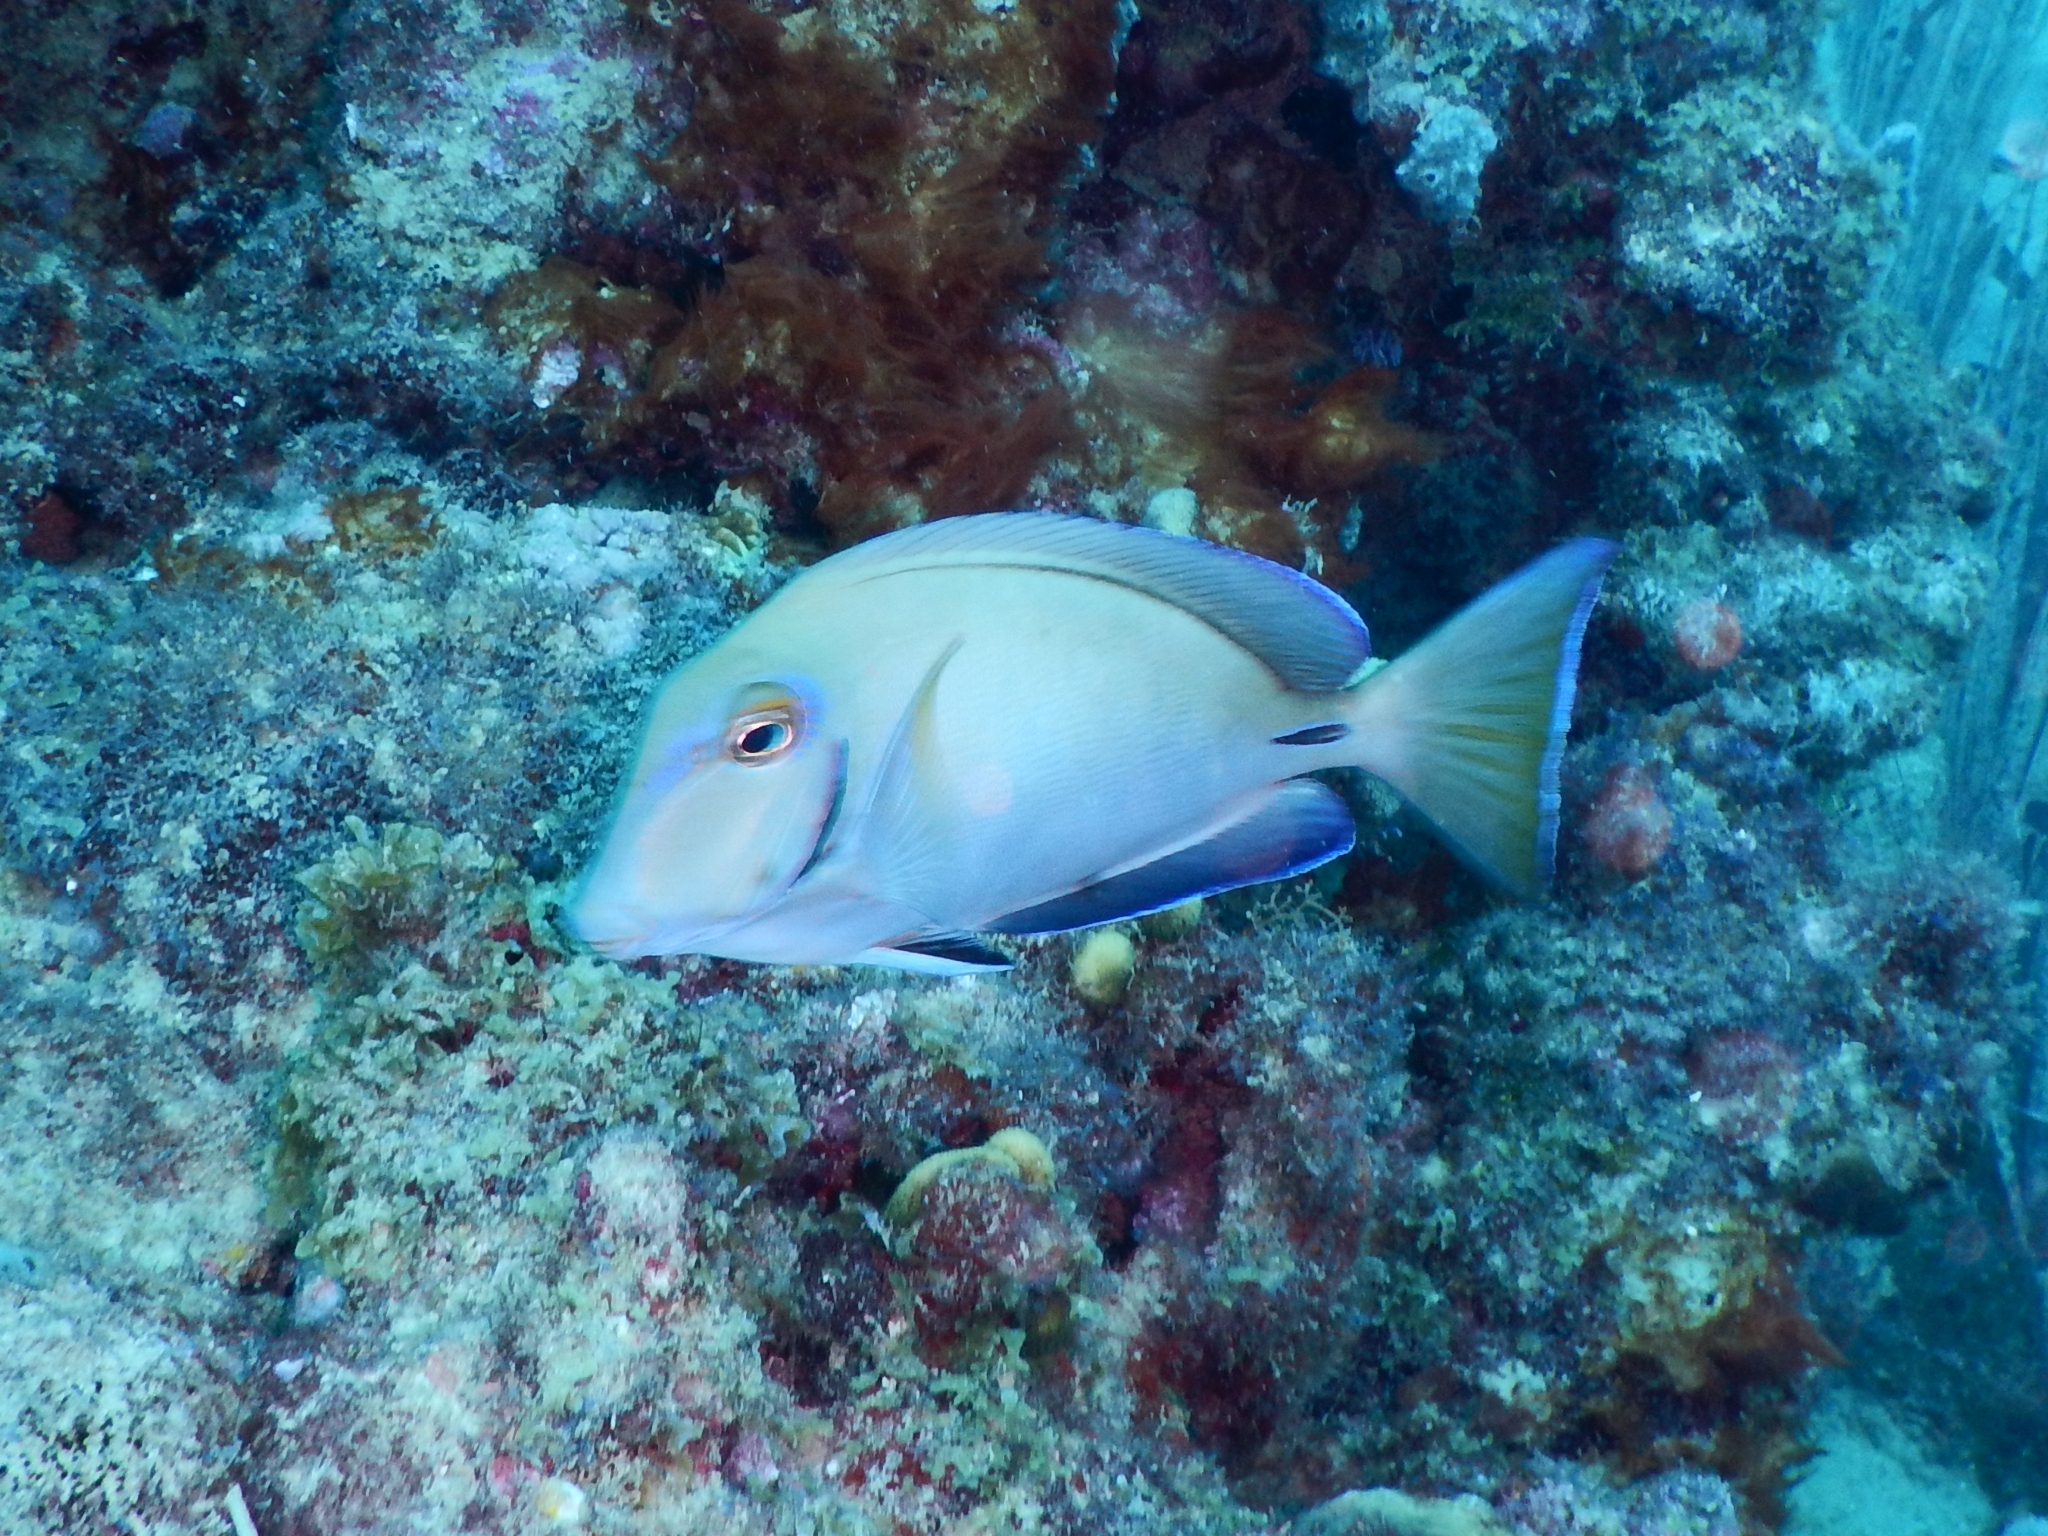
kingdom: Animalia
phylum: Chordata
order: Perciformes
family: Acanthuridae
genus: Acanthurus
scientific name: Acanthurus bahianus
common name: Ocean surgeon
